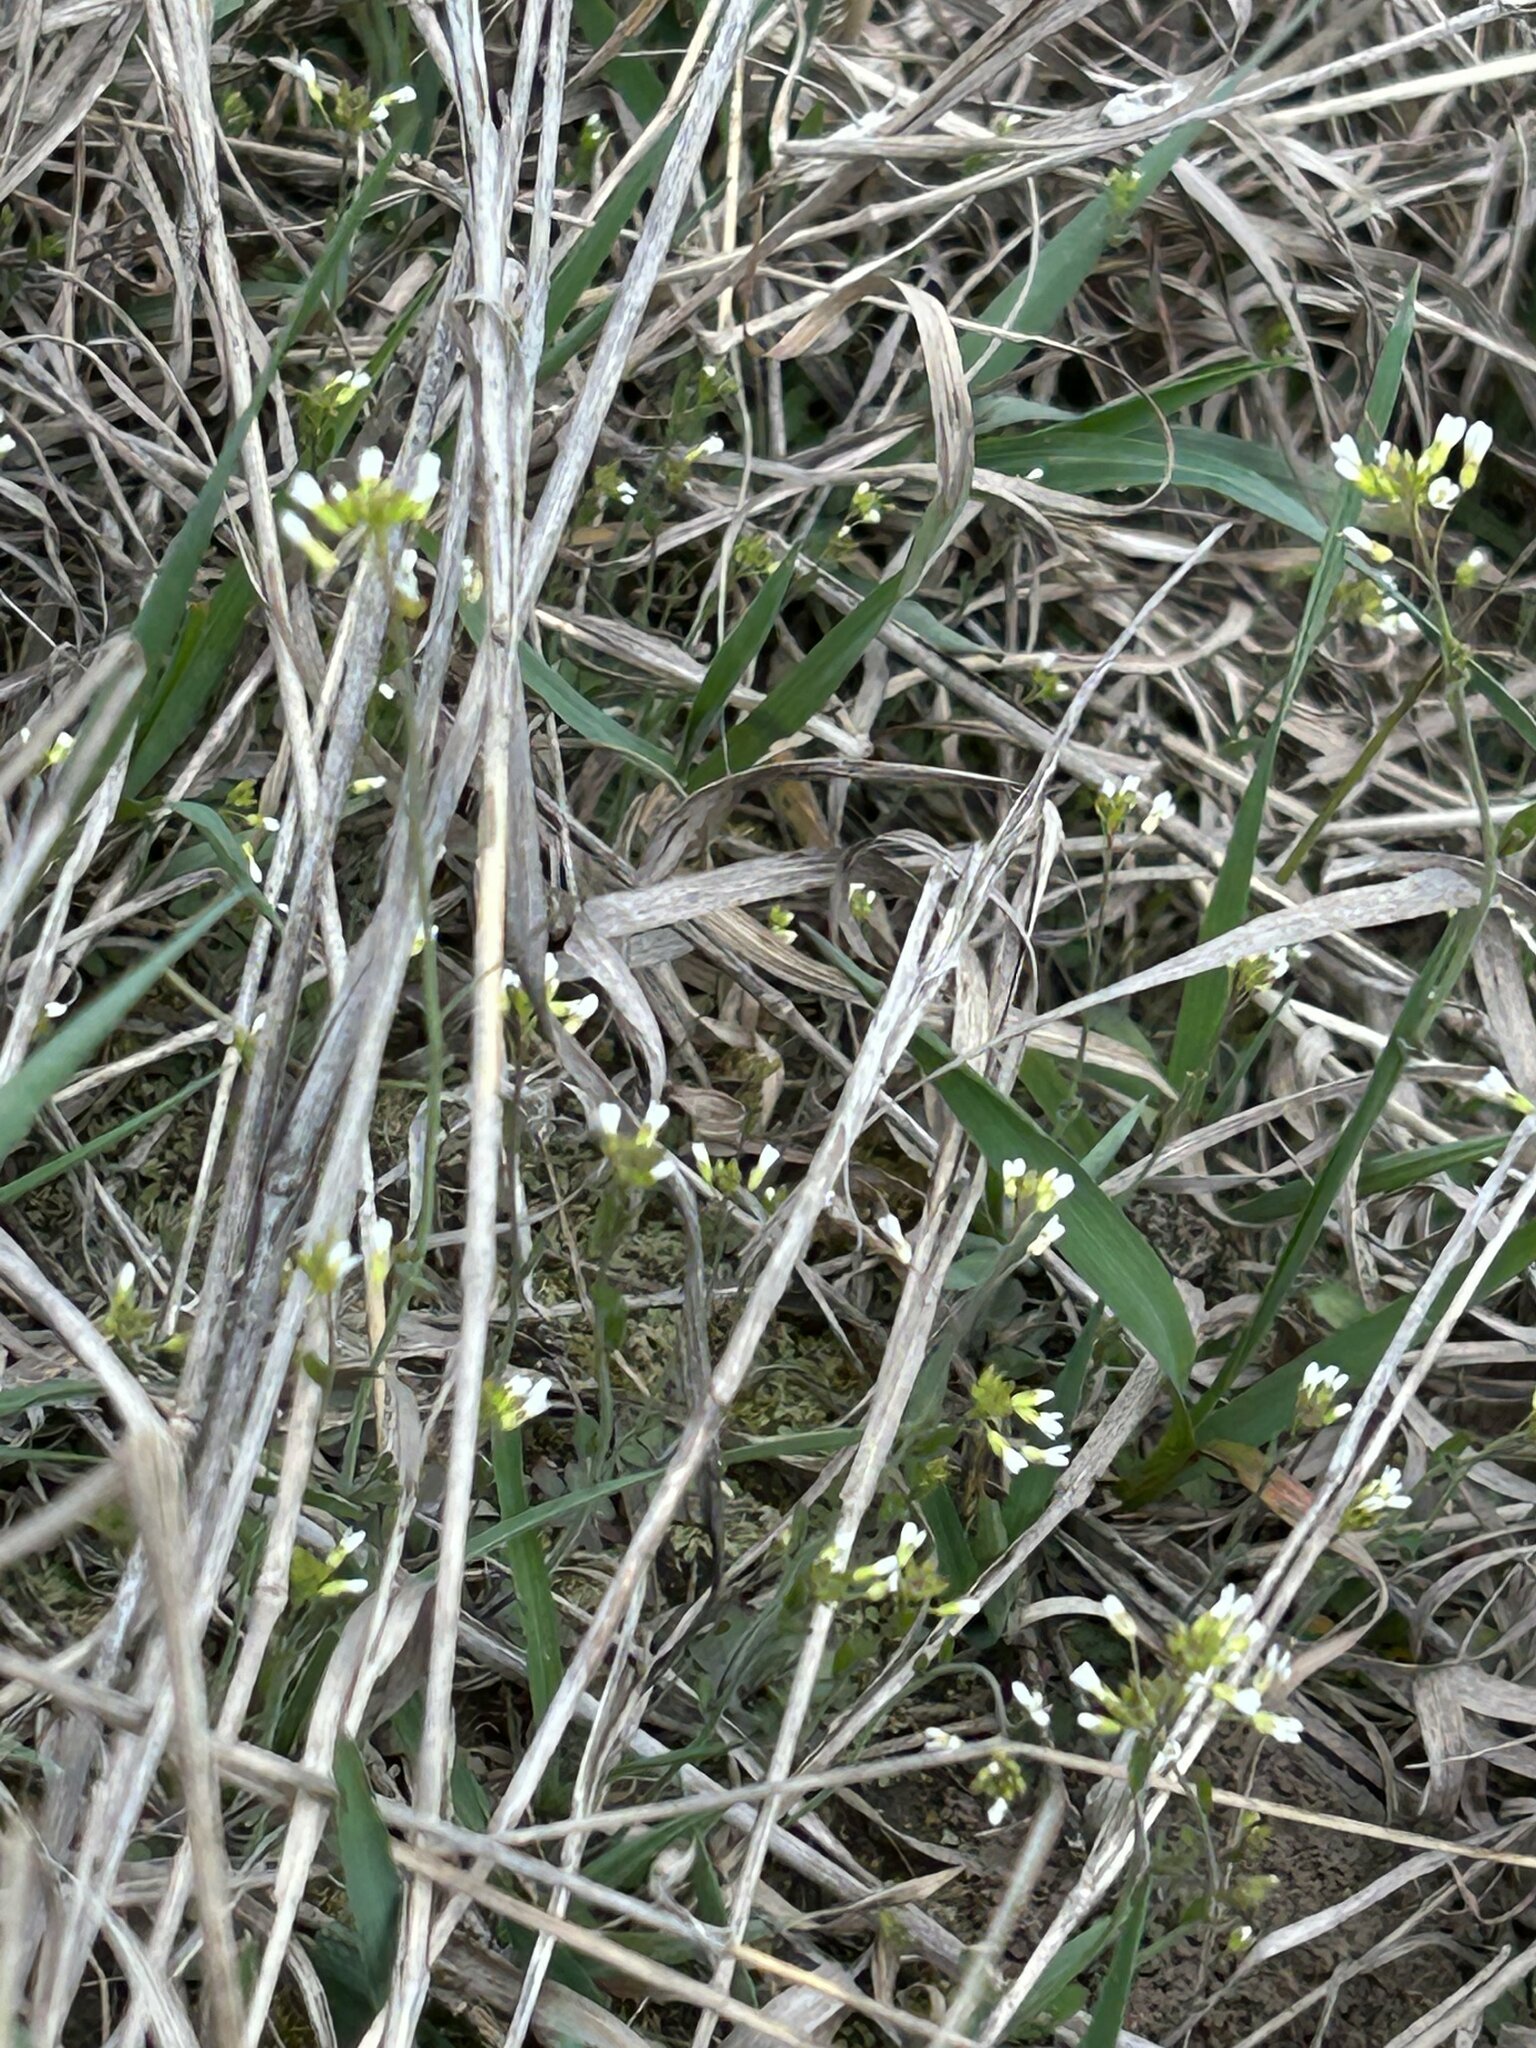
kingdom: Plantae
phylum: Tracheophyta
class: Magnoliopsida
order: Brassicales
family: Brassicaceae
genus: Arabidopsis
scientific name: Arabidopsis thaliana
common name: Thale cress
